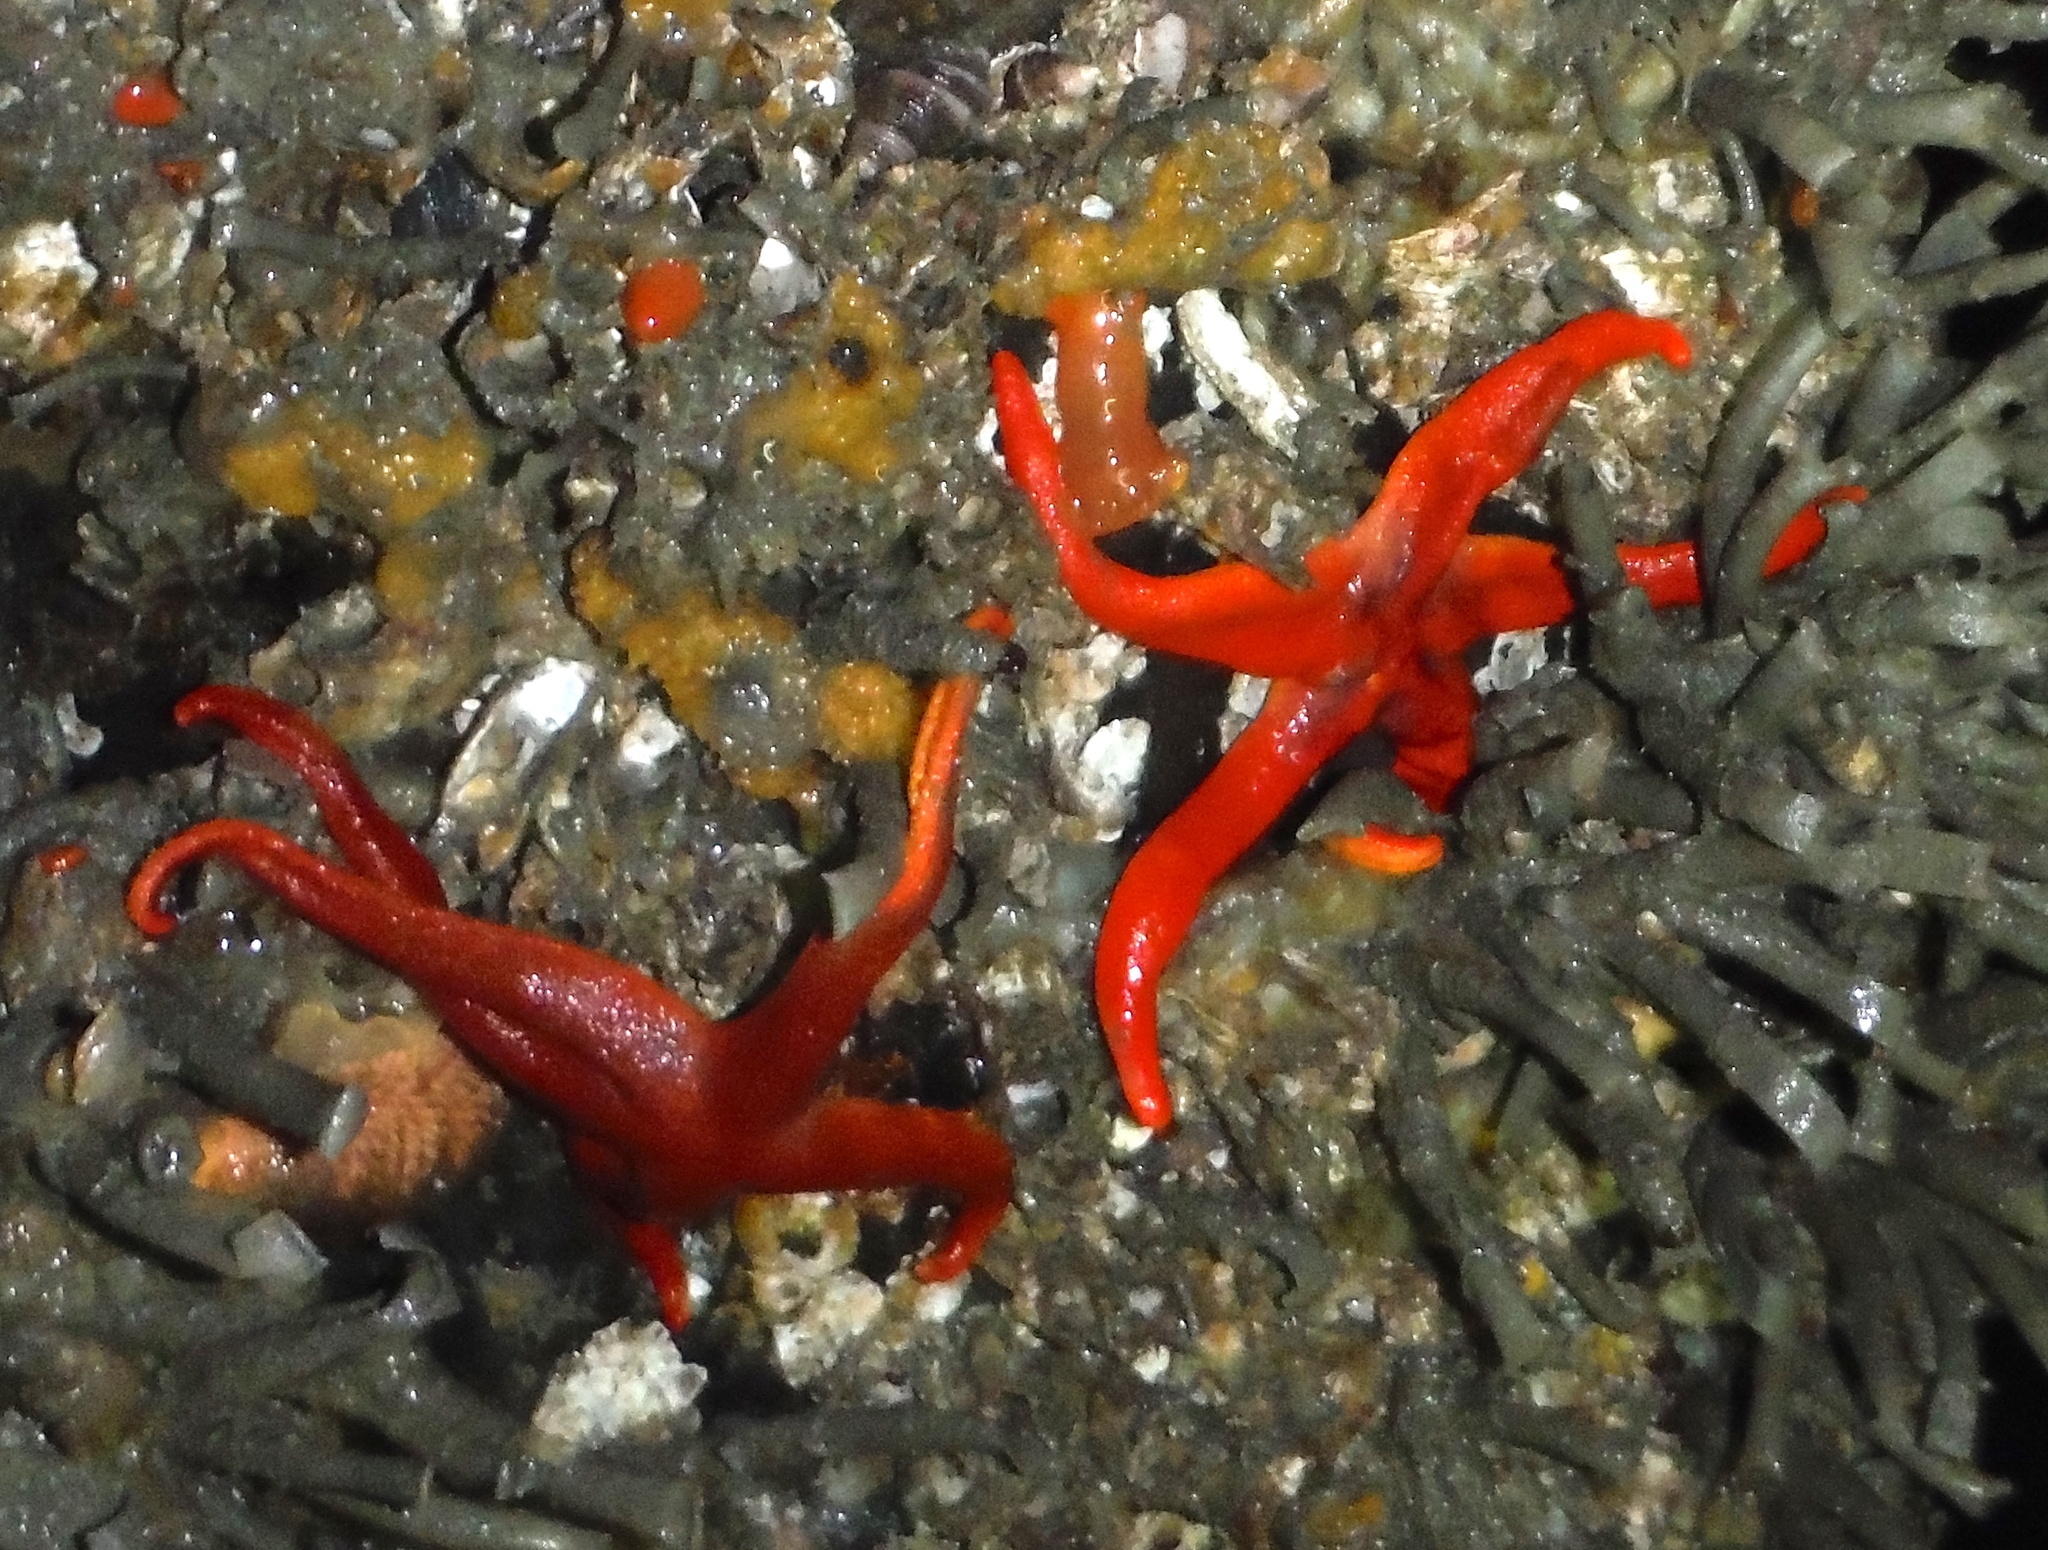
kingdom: Animalia
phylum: Echinodermata
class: Asteroidea
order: Spinulosida
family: Echinasteridae
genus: Henricia
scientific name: Henricia leviuscula
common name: Pacific blood star
